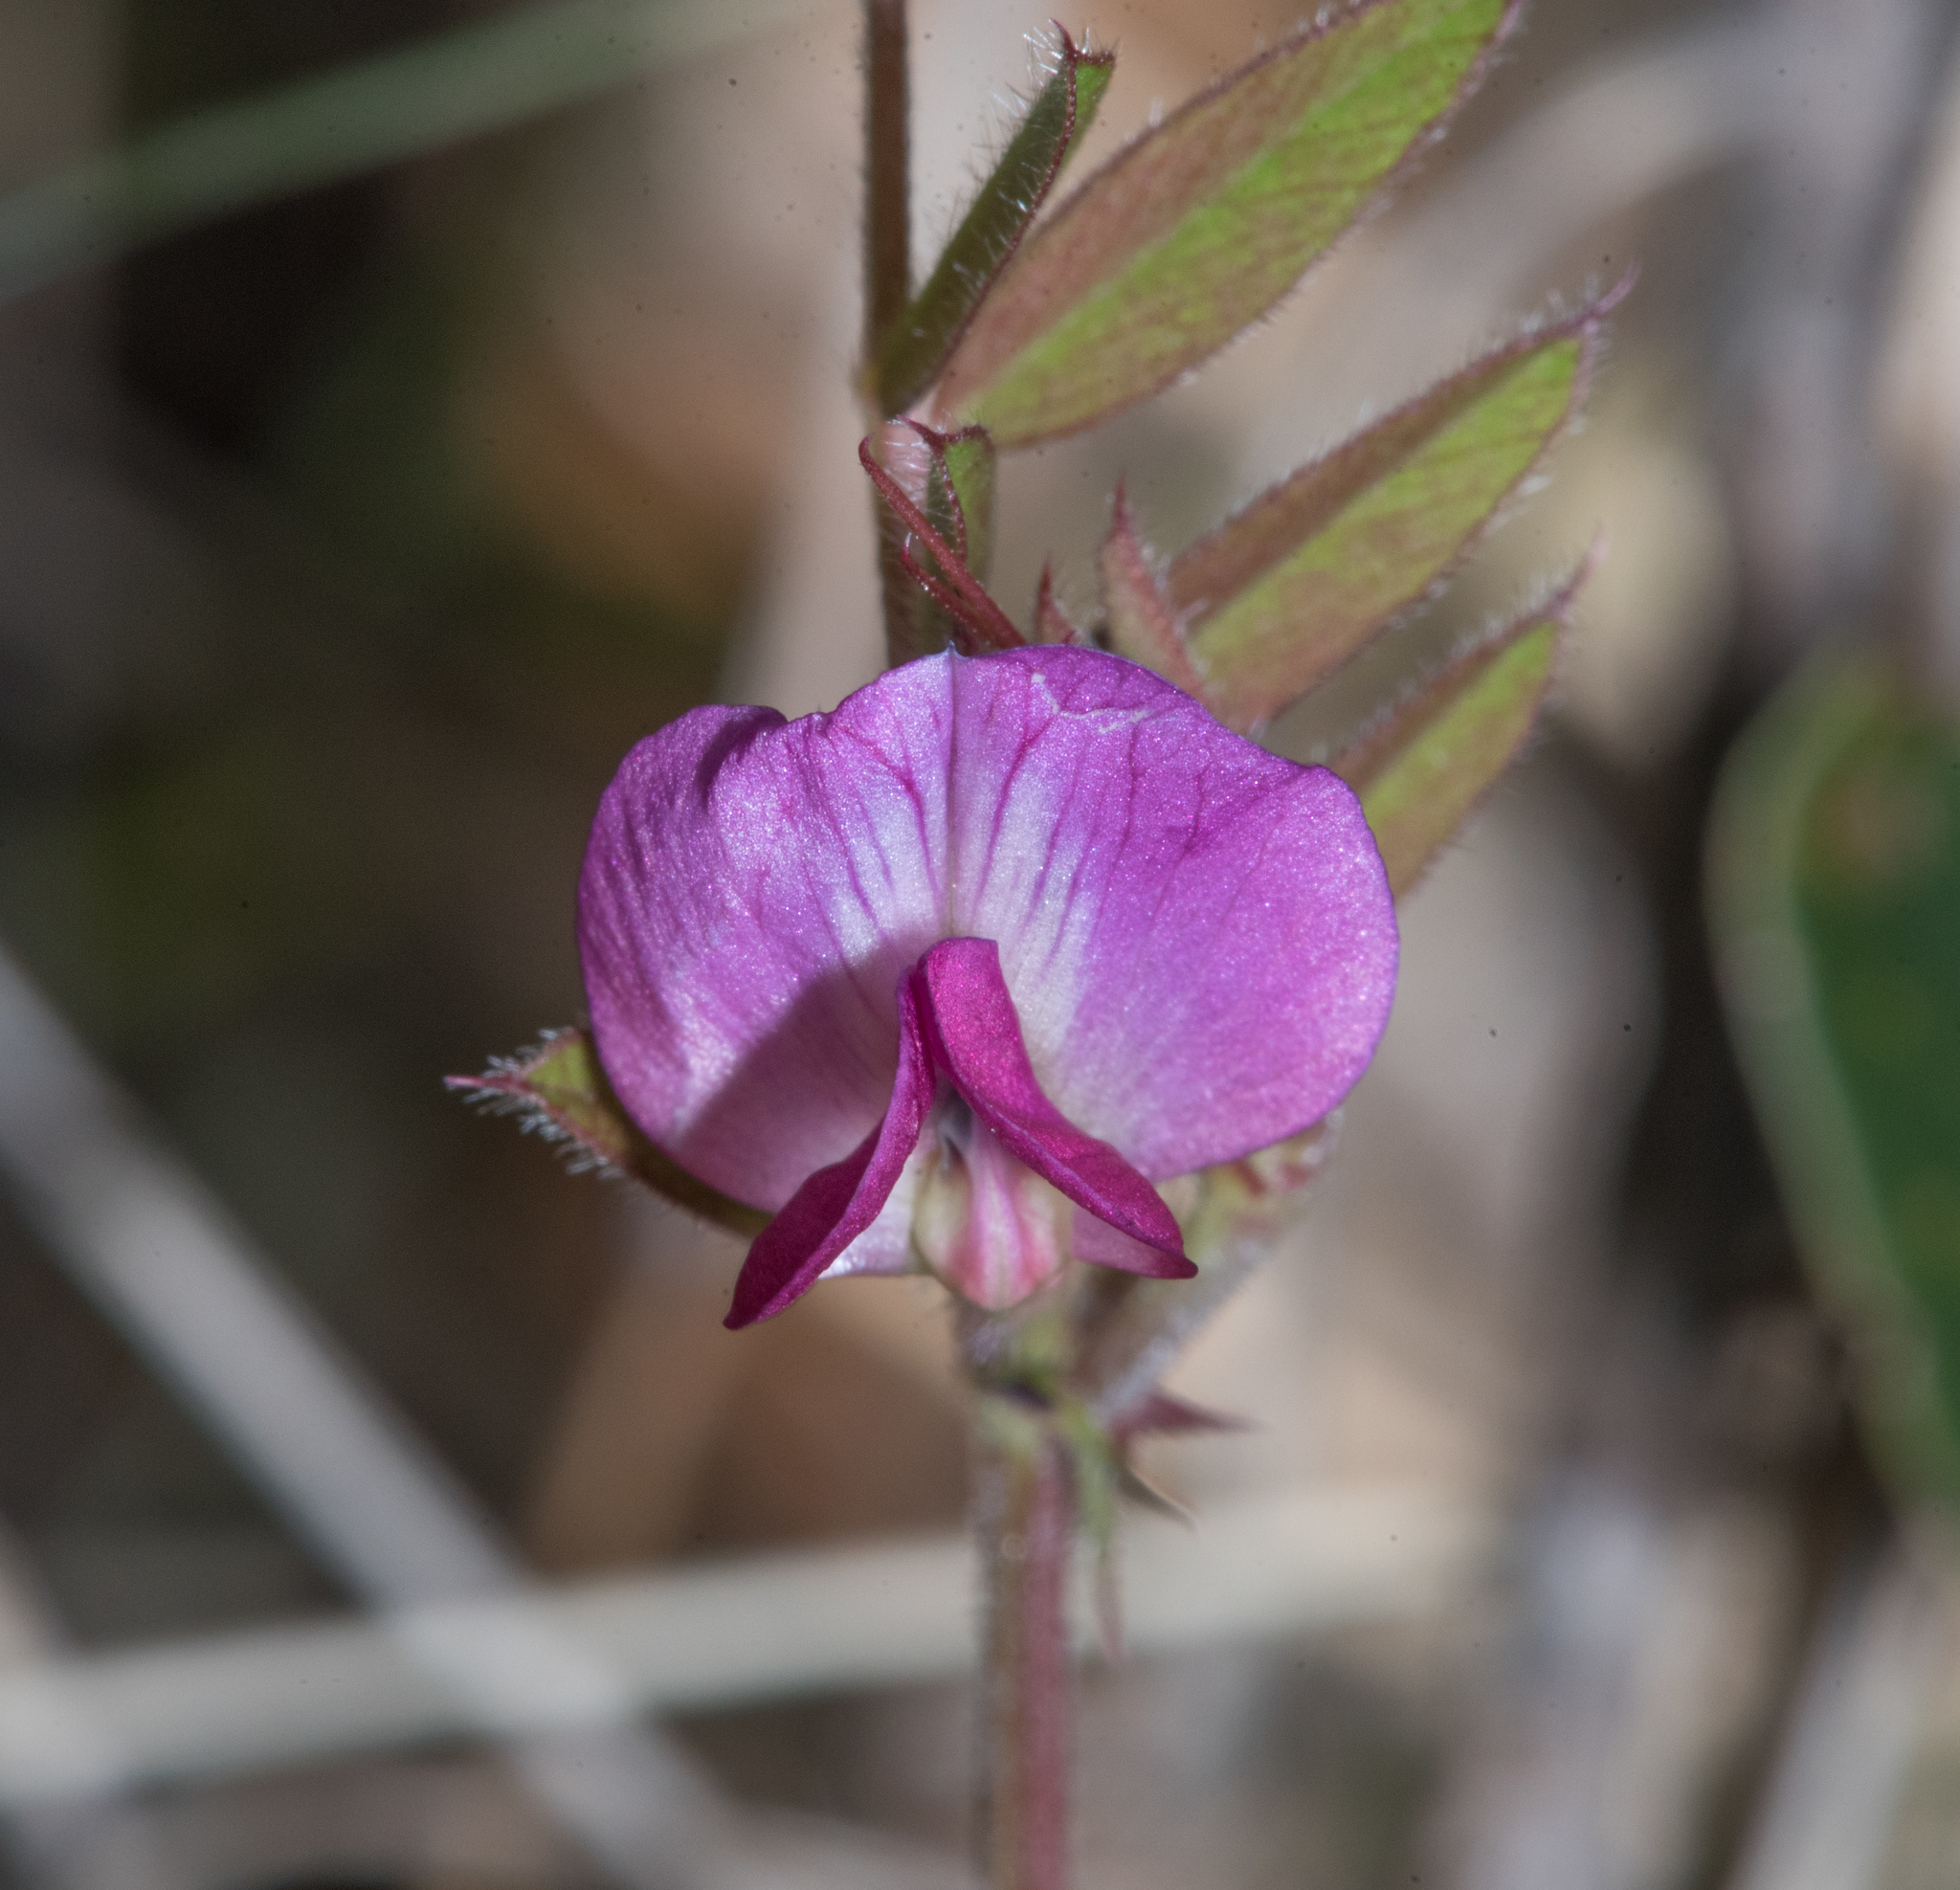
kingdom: Plantae
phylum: Tracheophyta
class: Magnoliopsida
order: Fabales
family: Fabaceae
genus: Vicia
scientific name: Vicia sativa
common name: Garden vetch
